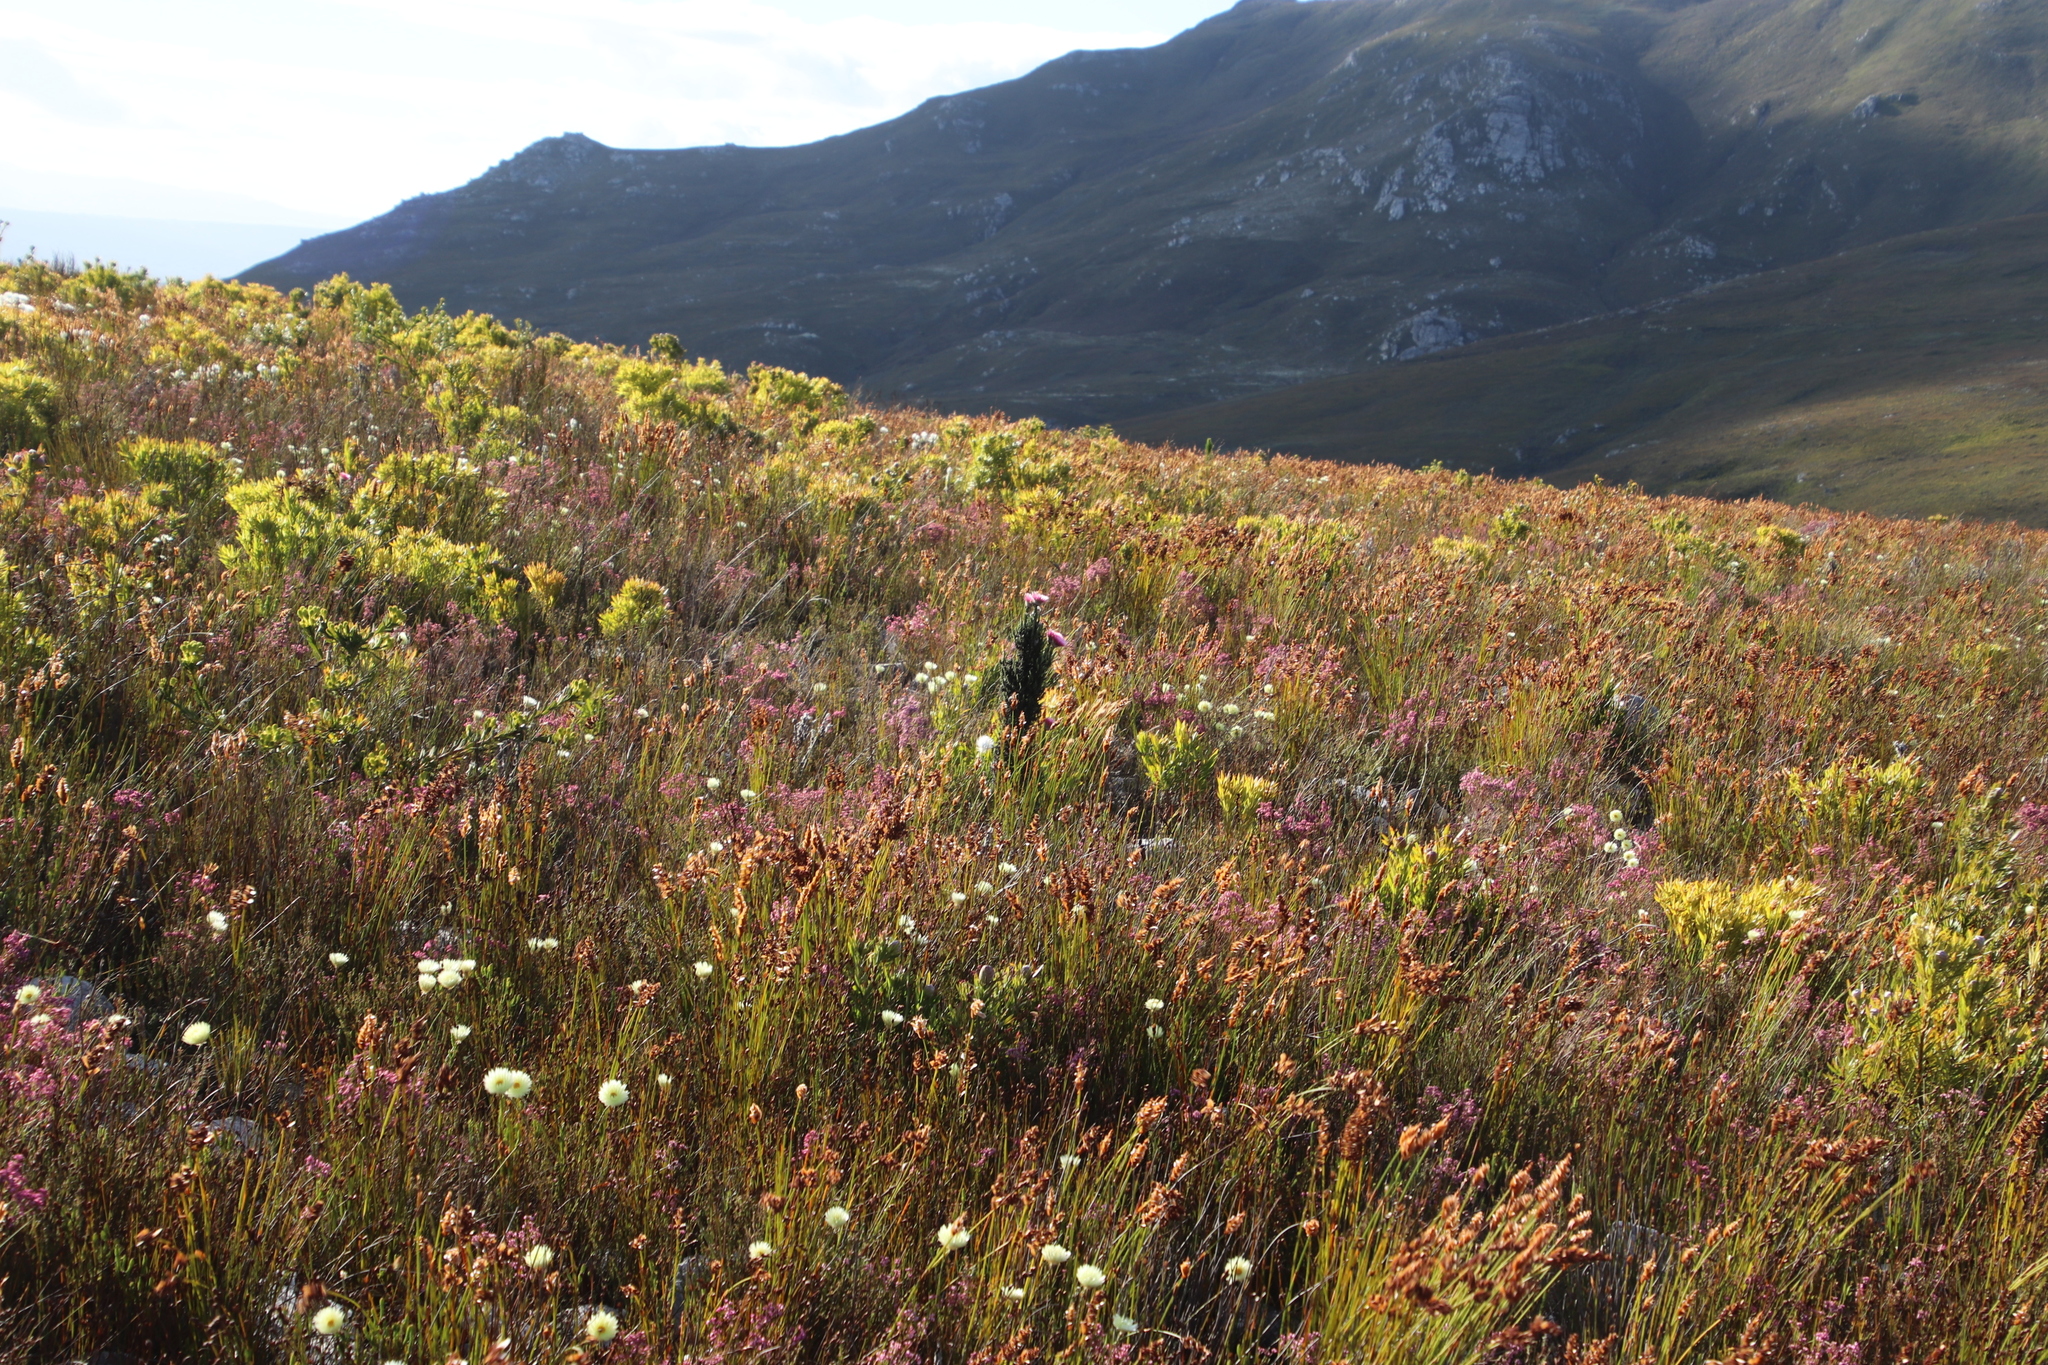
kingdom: Plantae
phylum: Tracheophyta
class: Magnoliopsida
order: Asterales
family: Asteraceae
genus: Phaenocoma
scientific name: Phaenocoma prolifera
